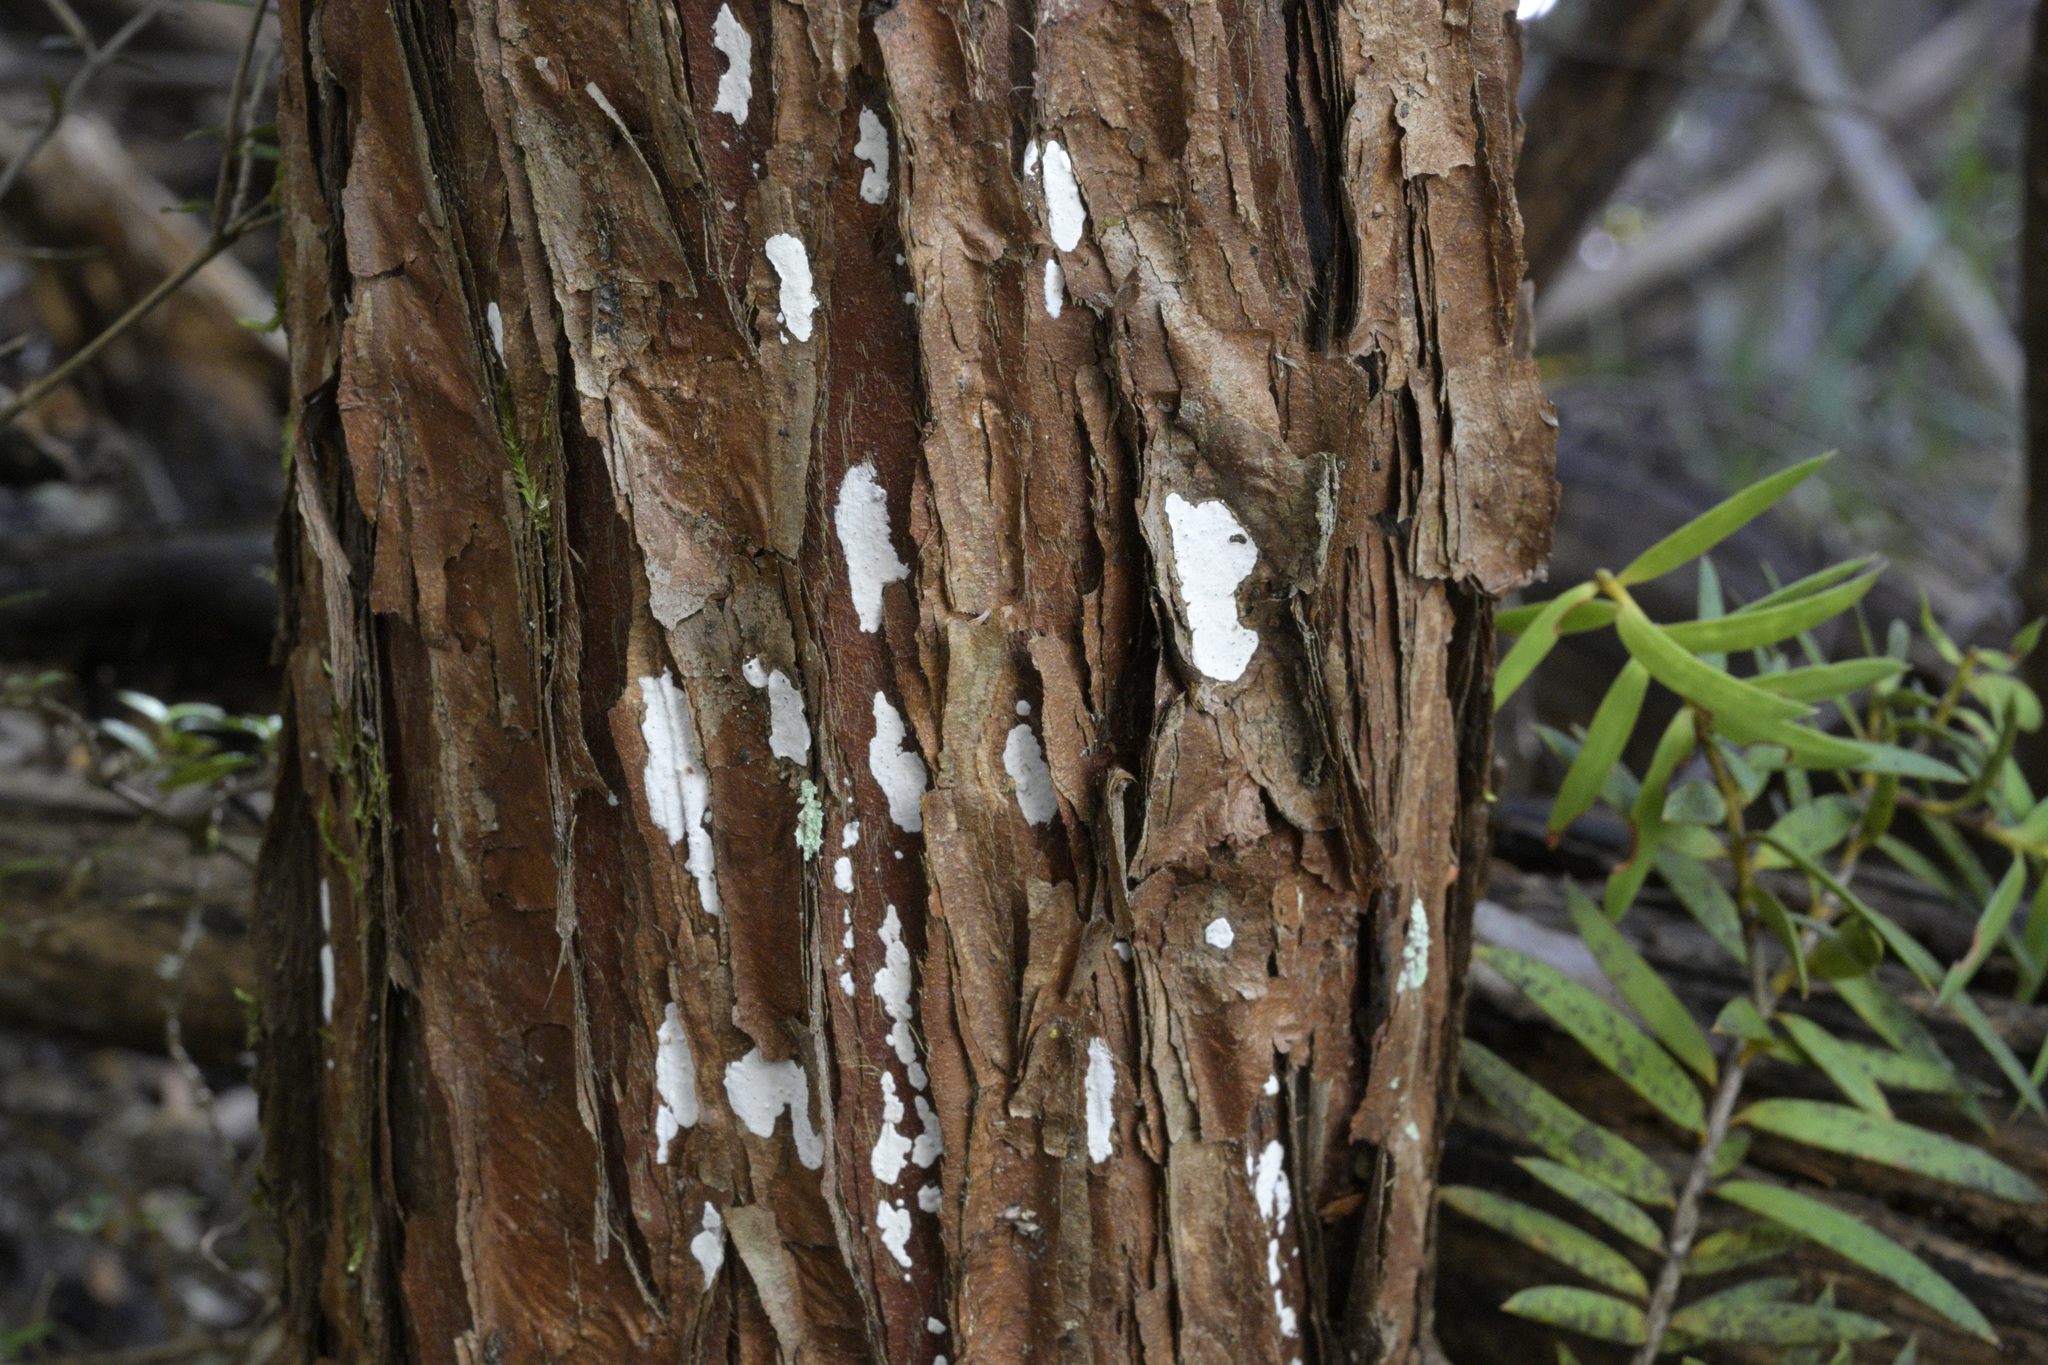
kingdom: Fungi
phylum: Basidiomycota
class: Agaricomycetes
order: Agaricales
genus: Dendrothele
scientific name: Dendrothele nivosa
